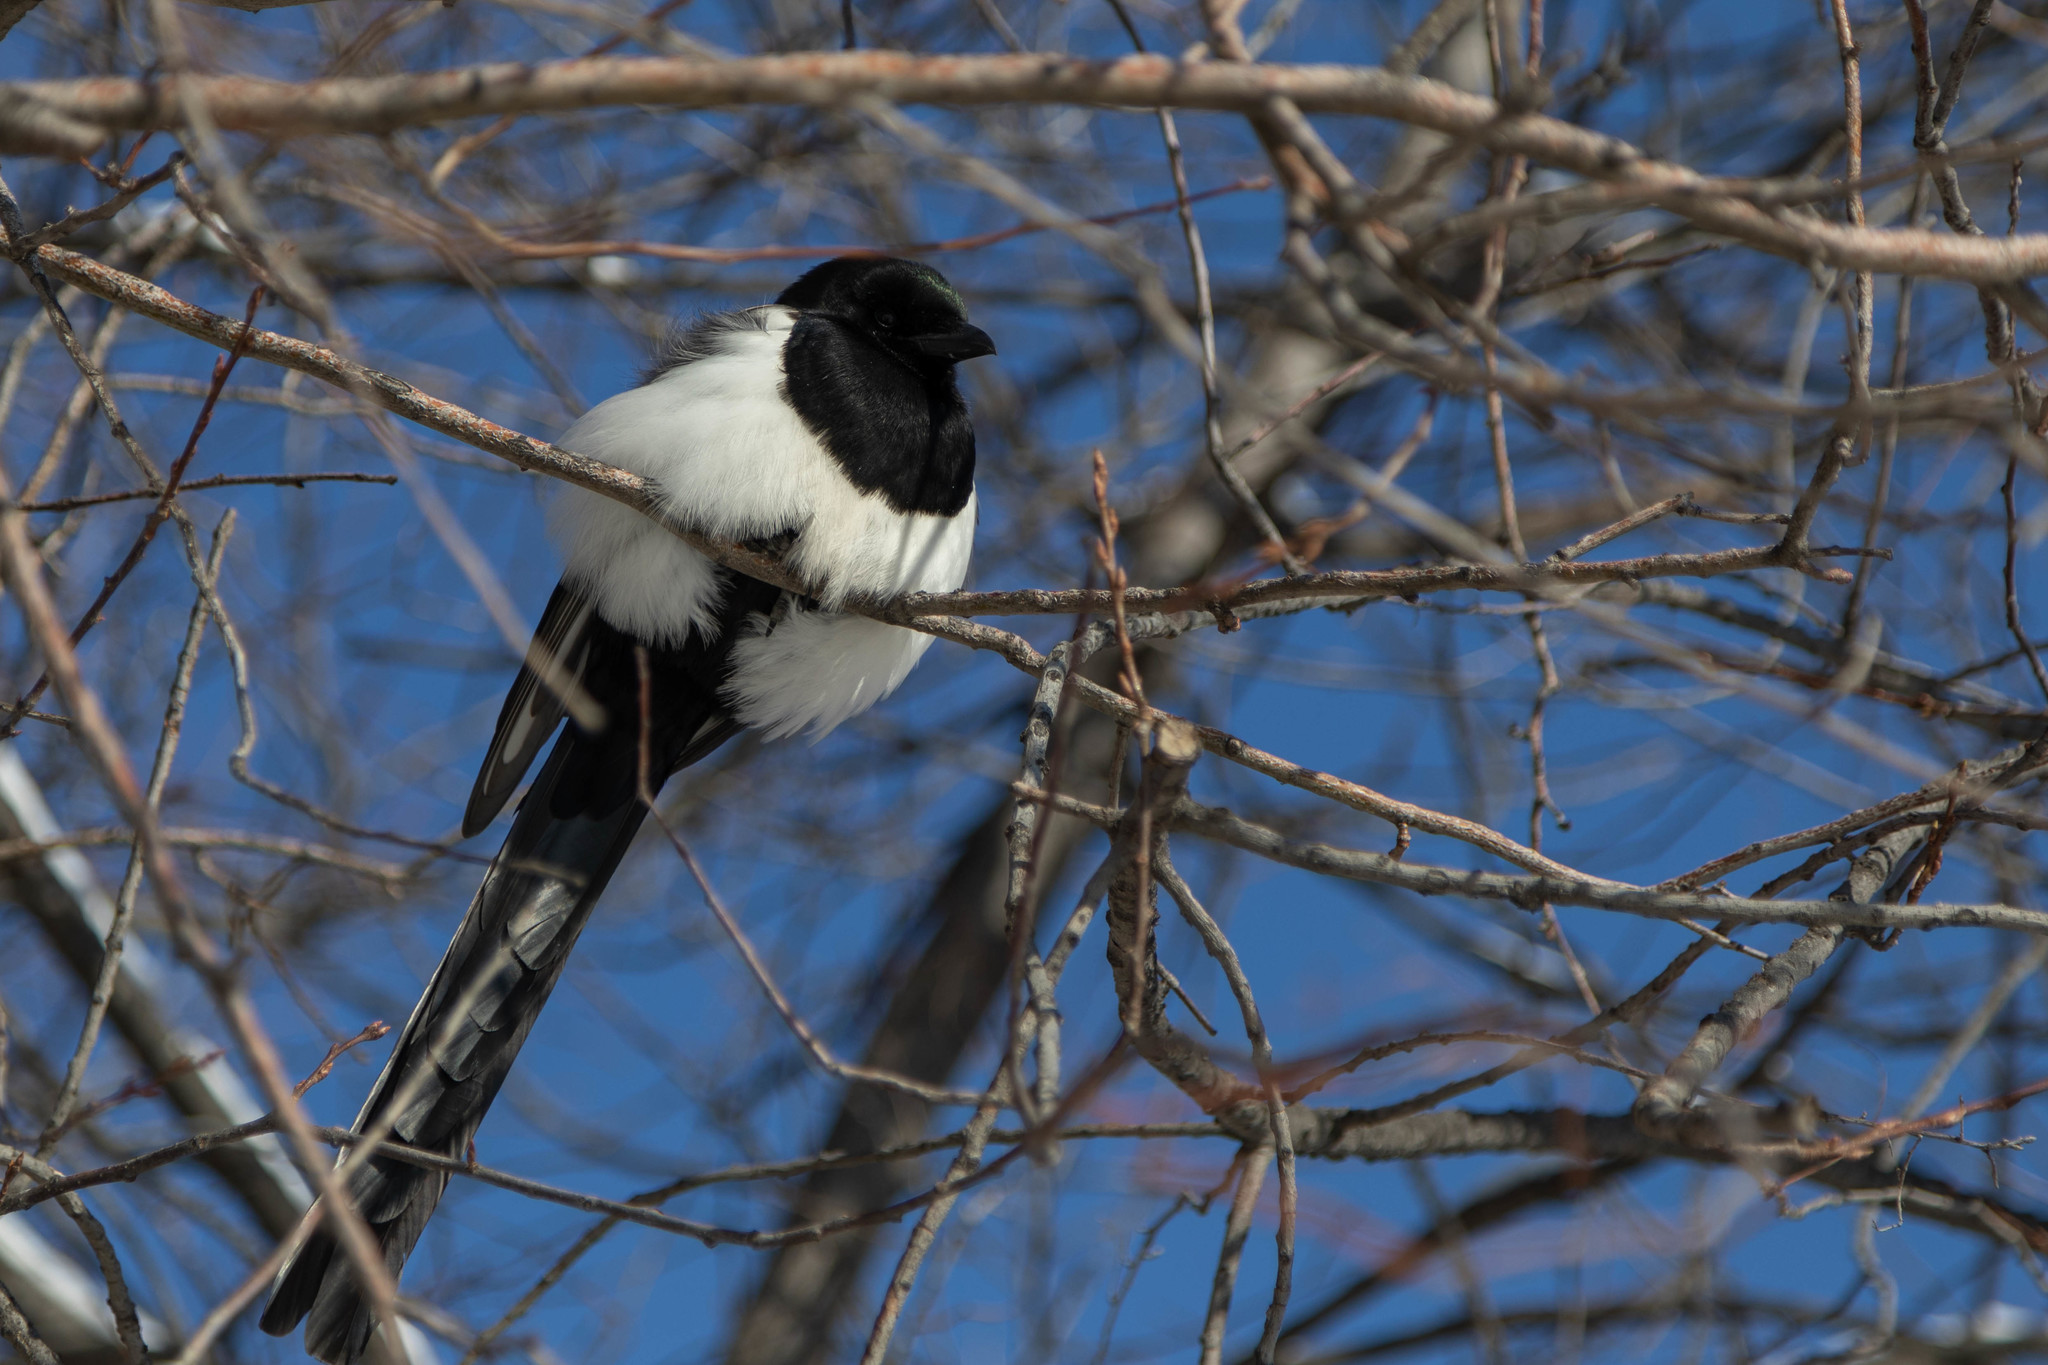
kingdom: Animalia
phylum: Chordata
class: Aves
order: Passeriformes
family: Corvidae
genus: Pica
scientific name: Pica hudsonia
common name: Black-billed magpie
